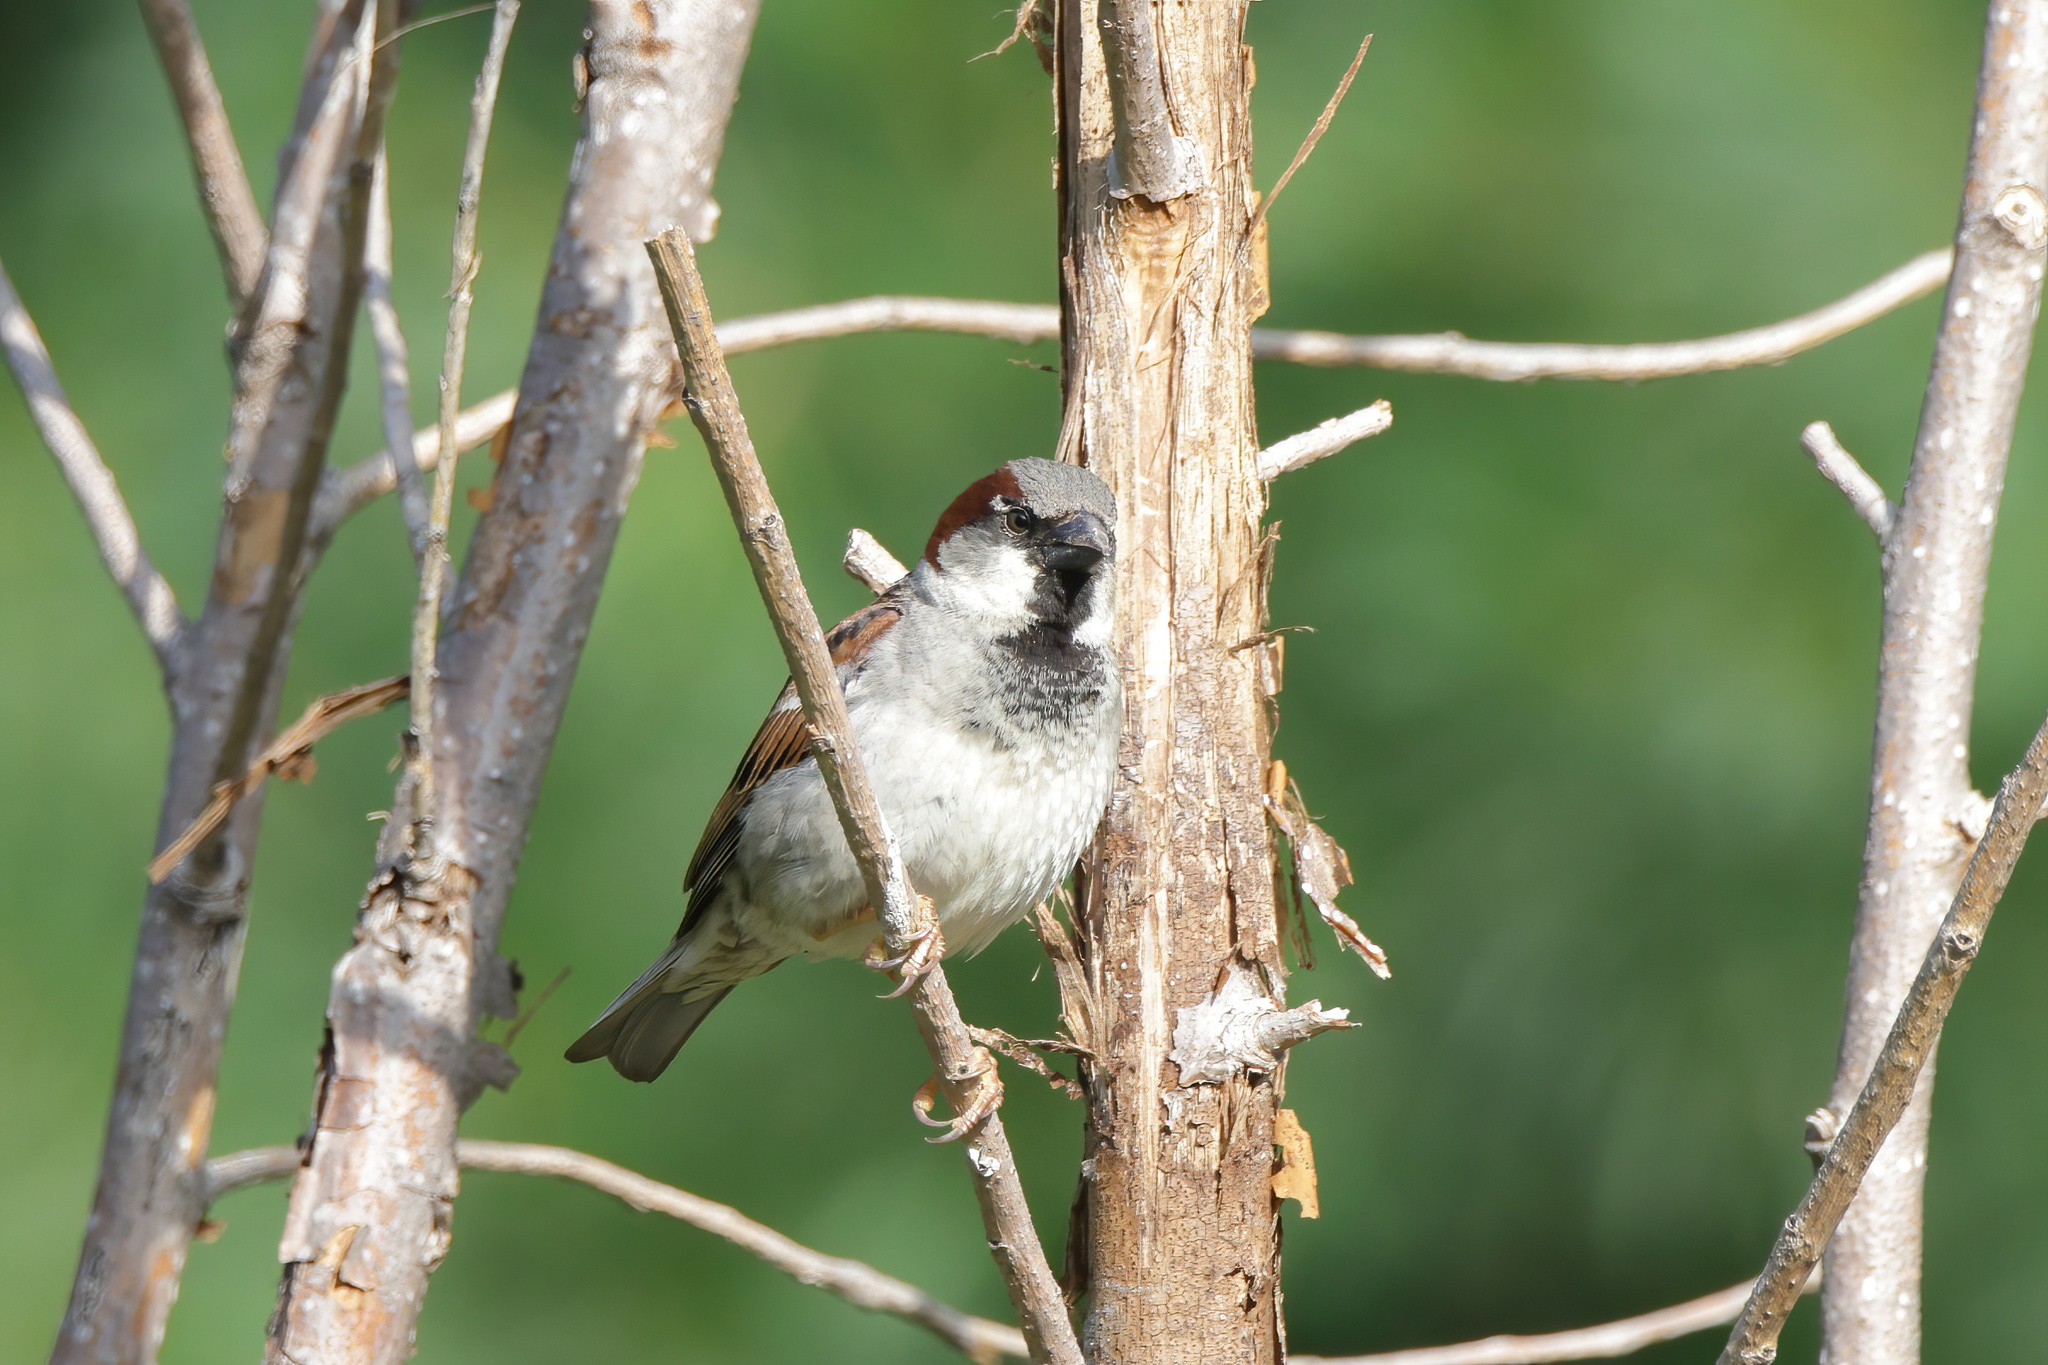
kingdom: Animalia
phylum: Chordata
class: Aves
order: Passeriformes
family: Passeridae
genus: Passer
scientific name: Passer domesticus
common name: House sparrow
